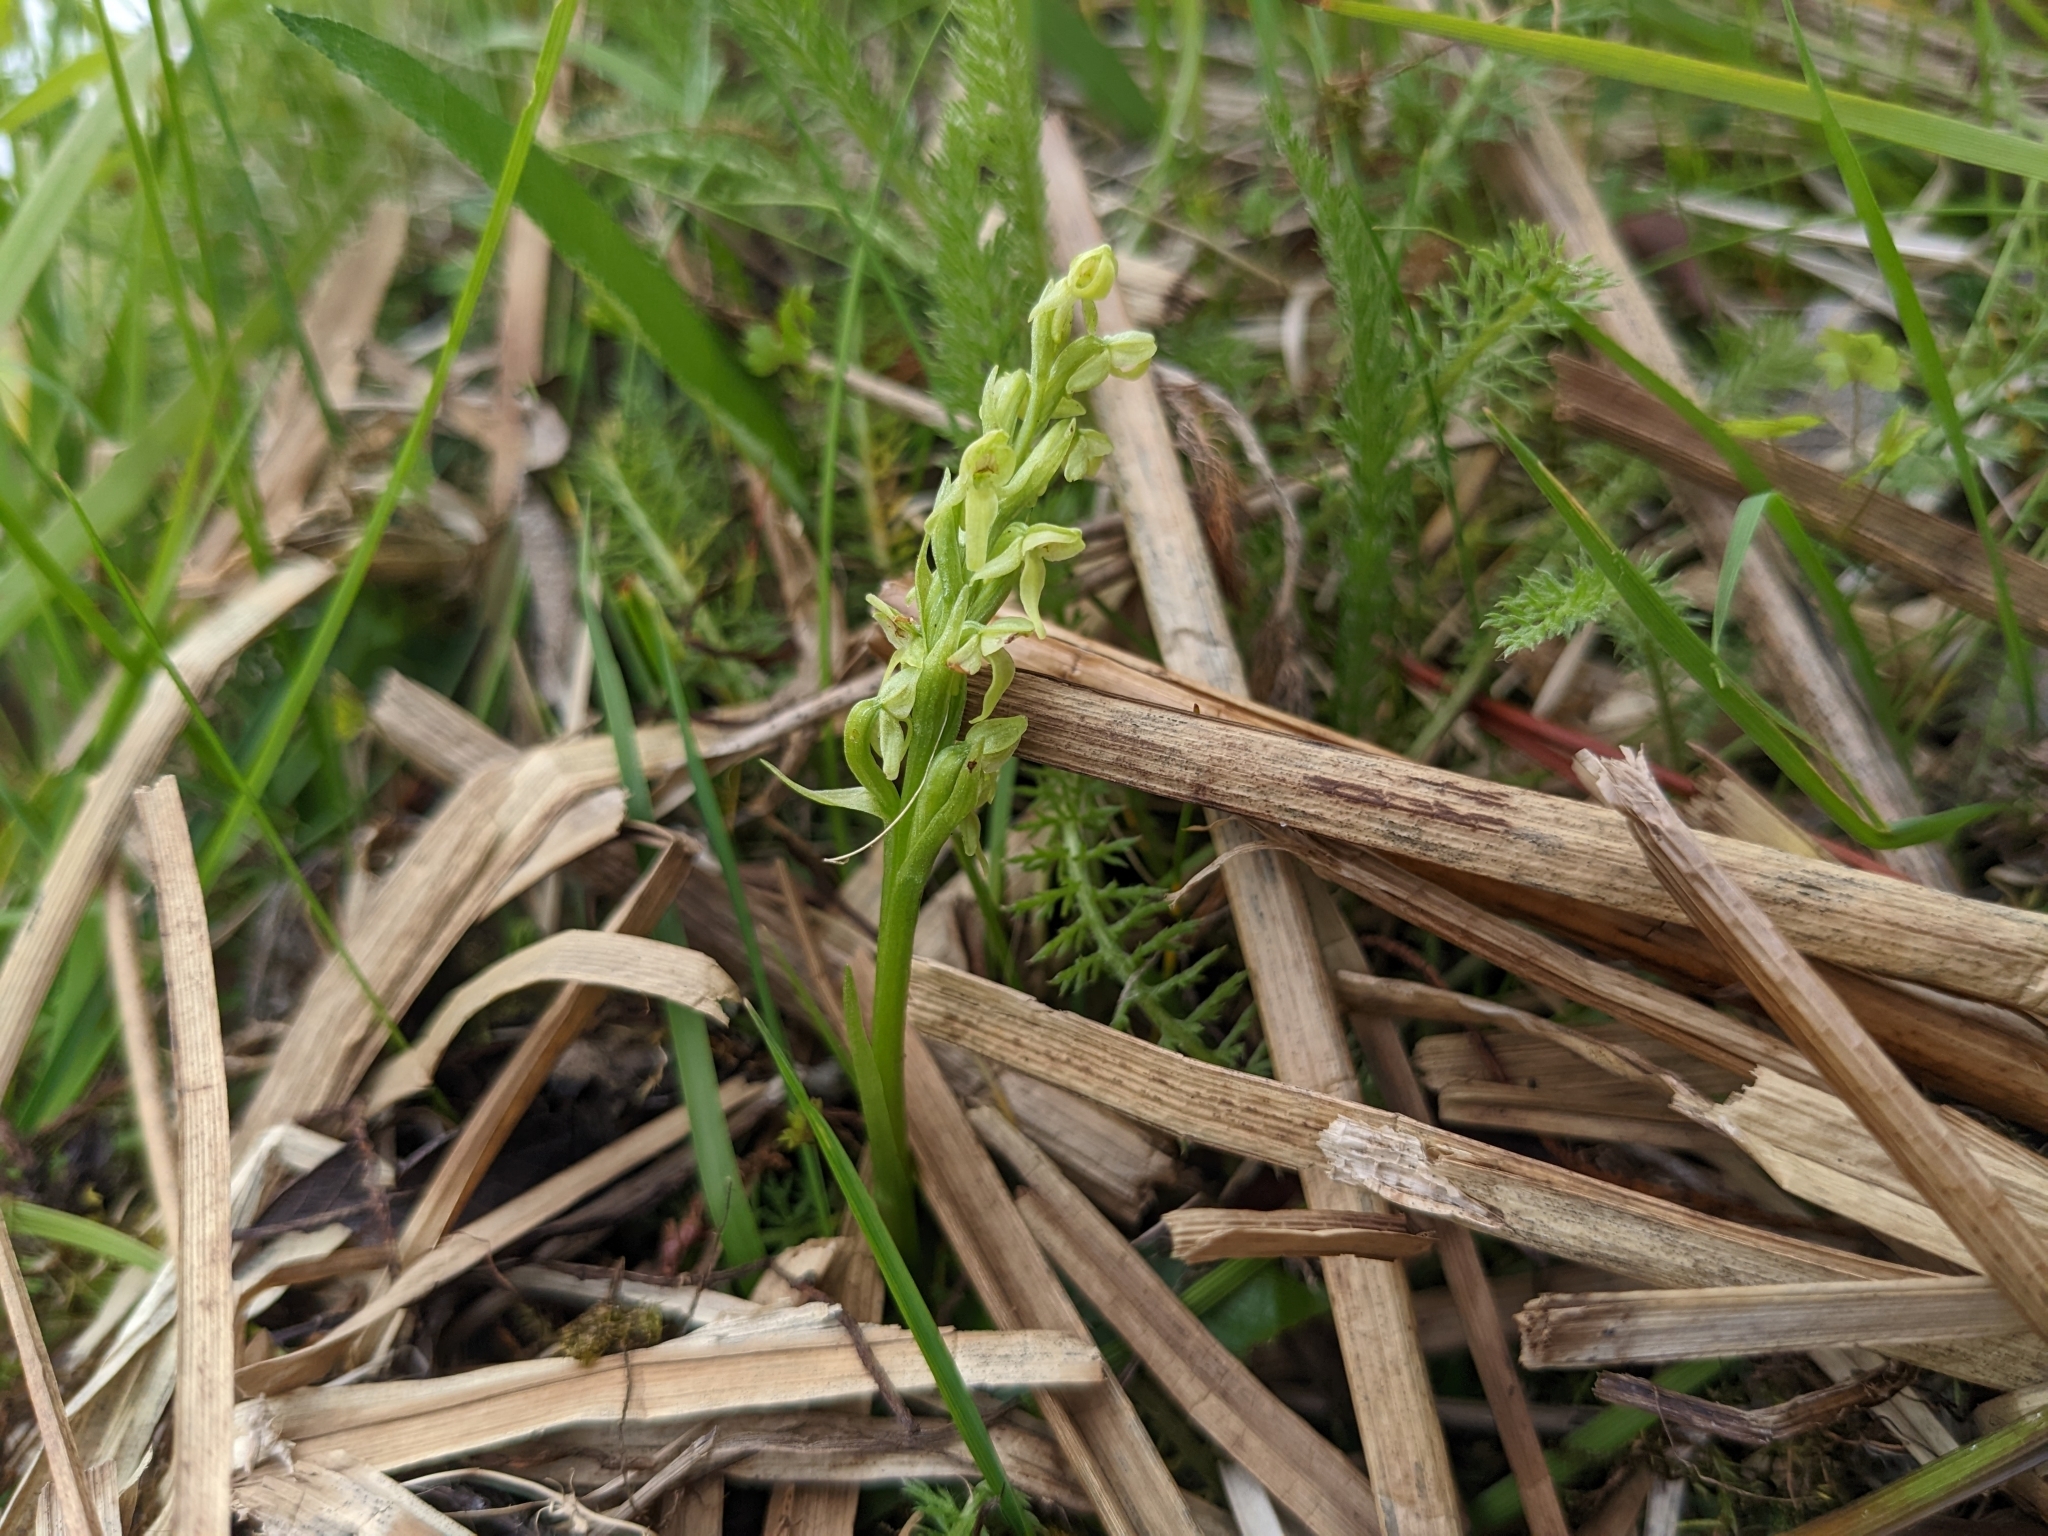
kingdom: Plantae
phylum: Tracheophyta
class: Liliopsida
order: Asparagales
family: Orchidaceae
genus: Platanthera
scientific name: Platanthera hyperborea
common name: Northern green orchid
